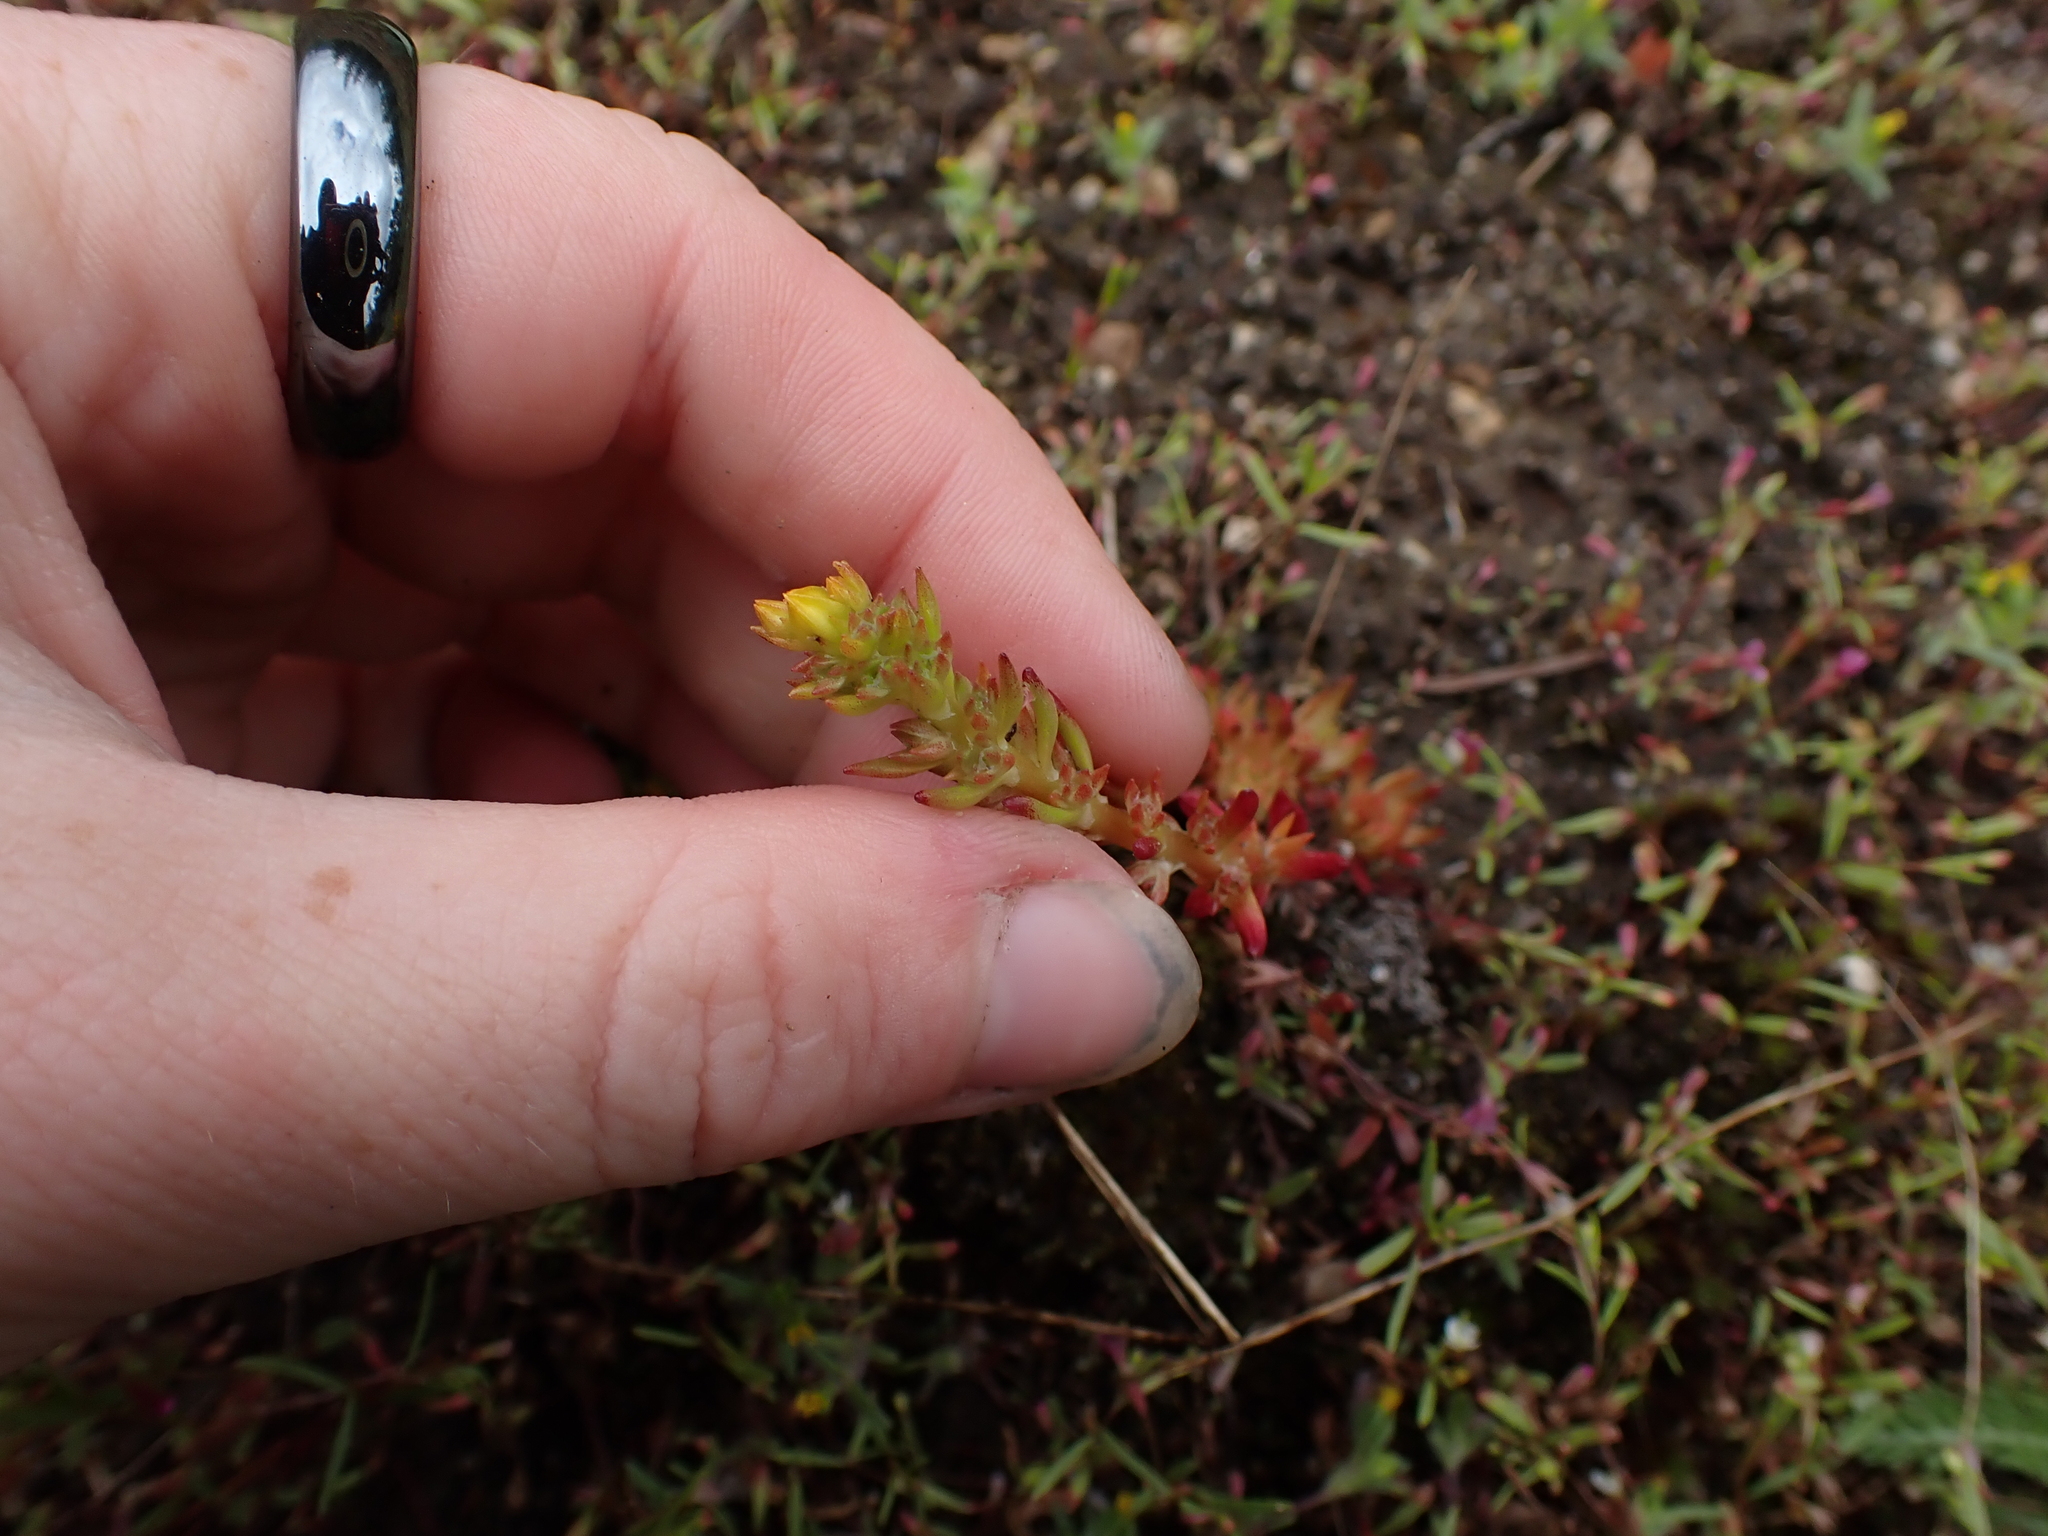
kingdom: Plantae
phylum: Tracheophyta
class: Magnoliopsida
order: Saxifragales
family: Crassulaceae
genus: Sedum
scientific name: Sedum stenopetalum
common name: Narrow-petaled stonecrop
